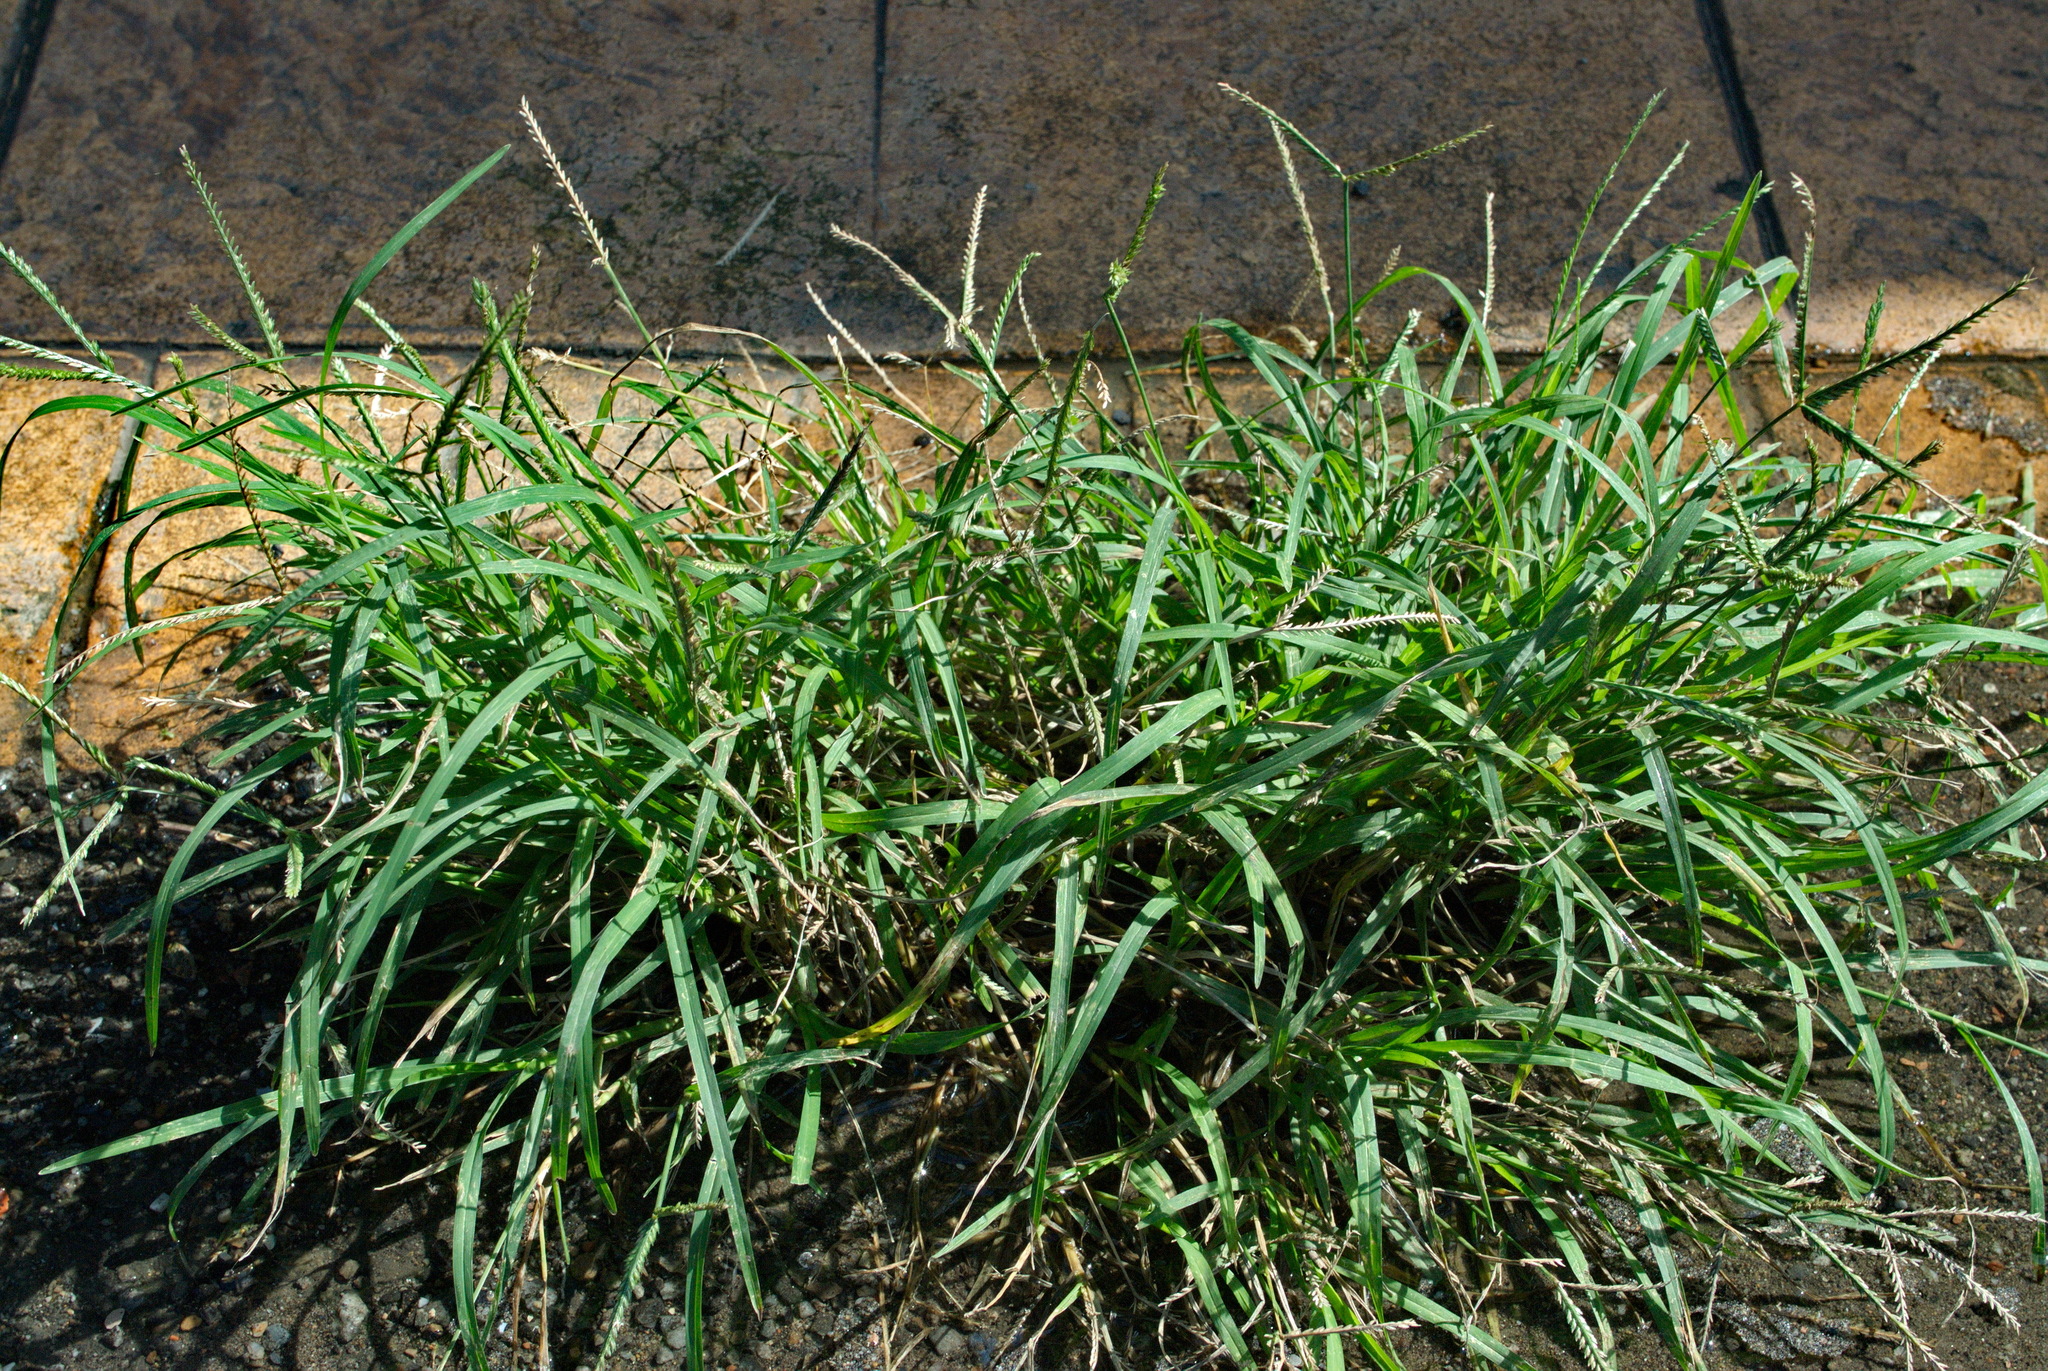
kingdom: Plantae
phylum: Tracheophyta
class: Liliopsida
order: Poales
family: Poaceae
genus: Eleusine
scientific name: Eleusine indica
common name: Yard-grass
